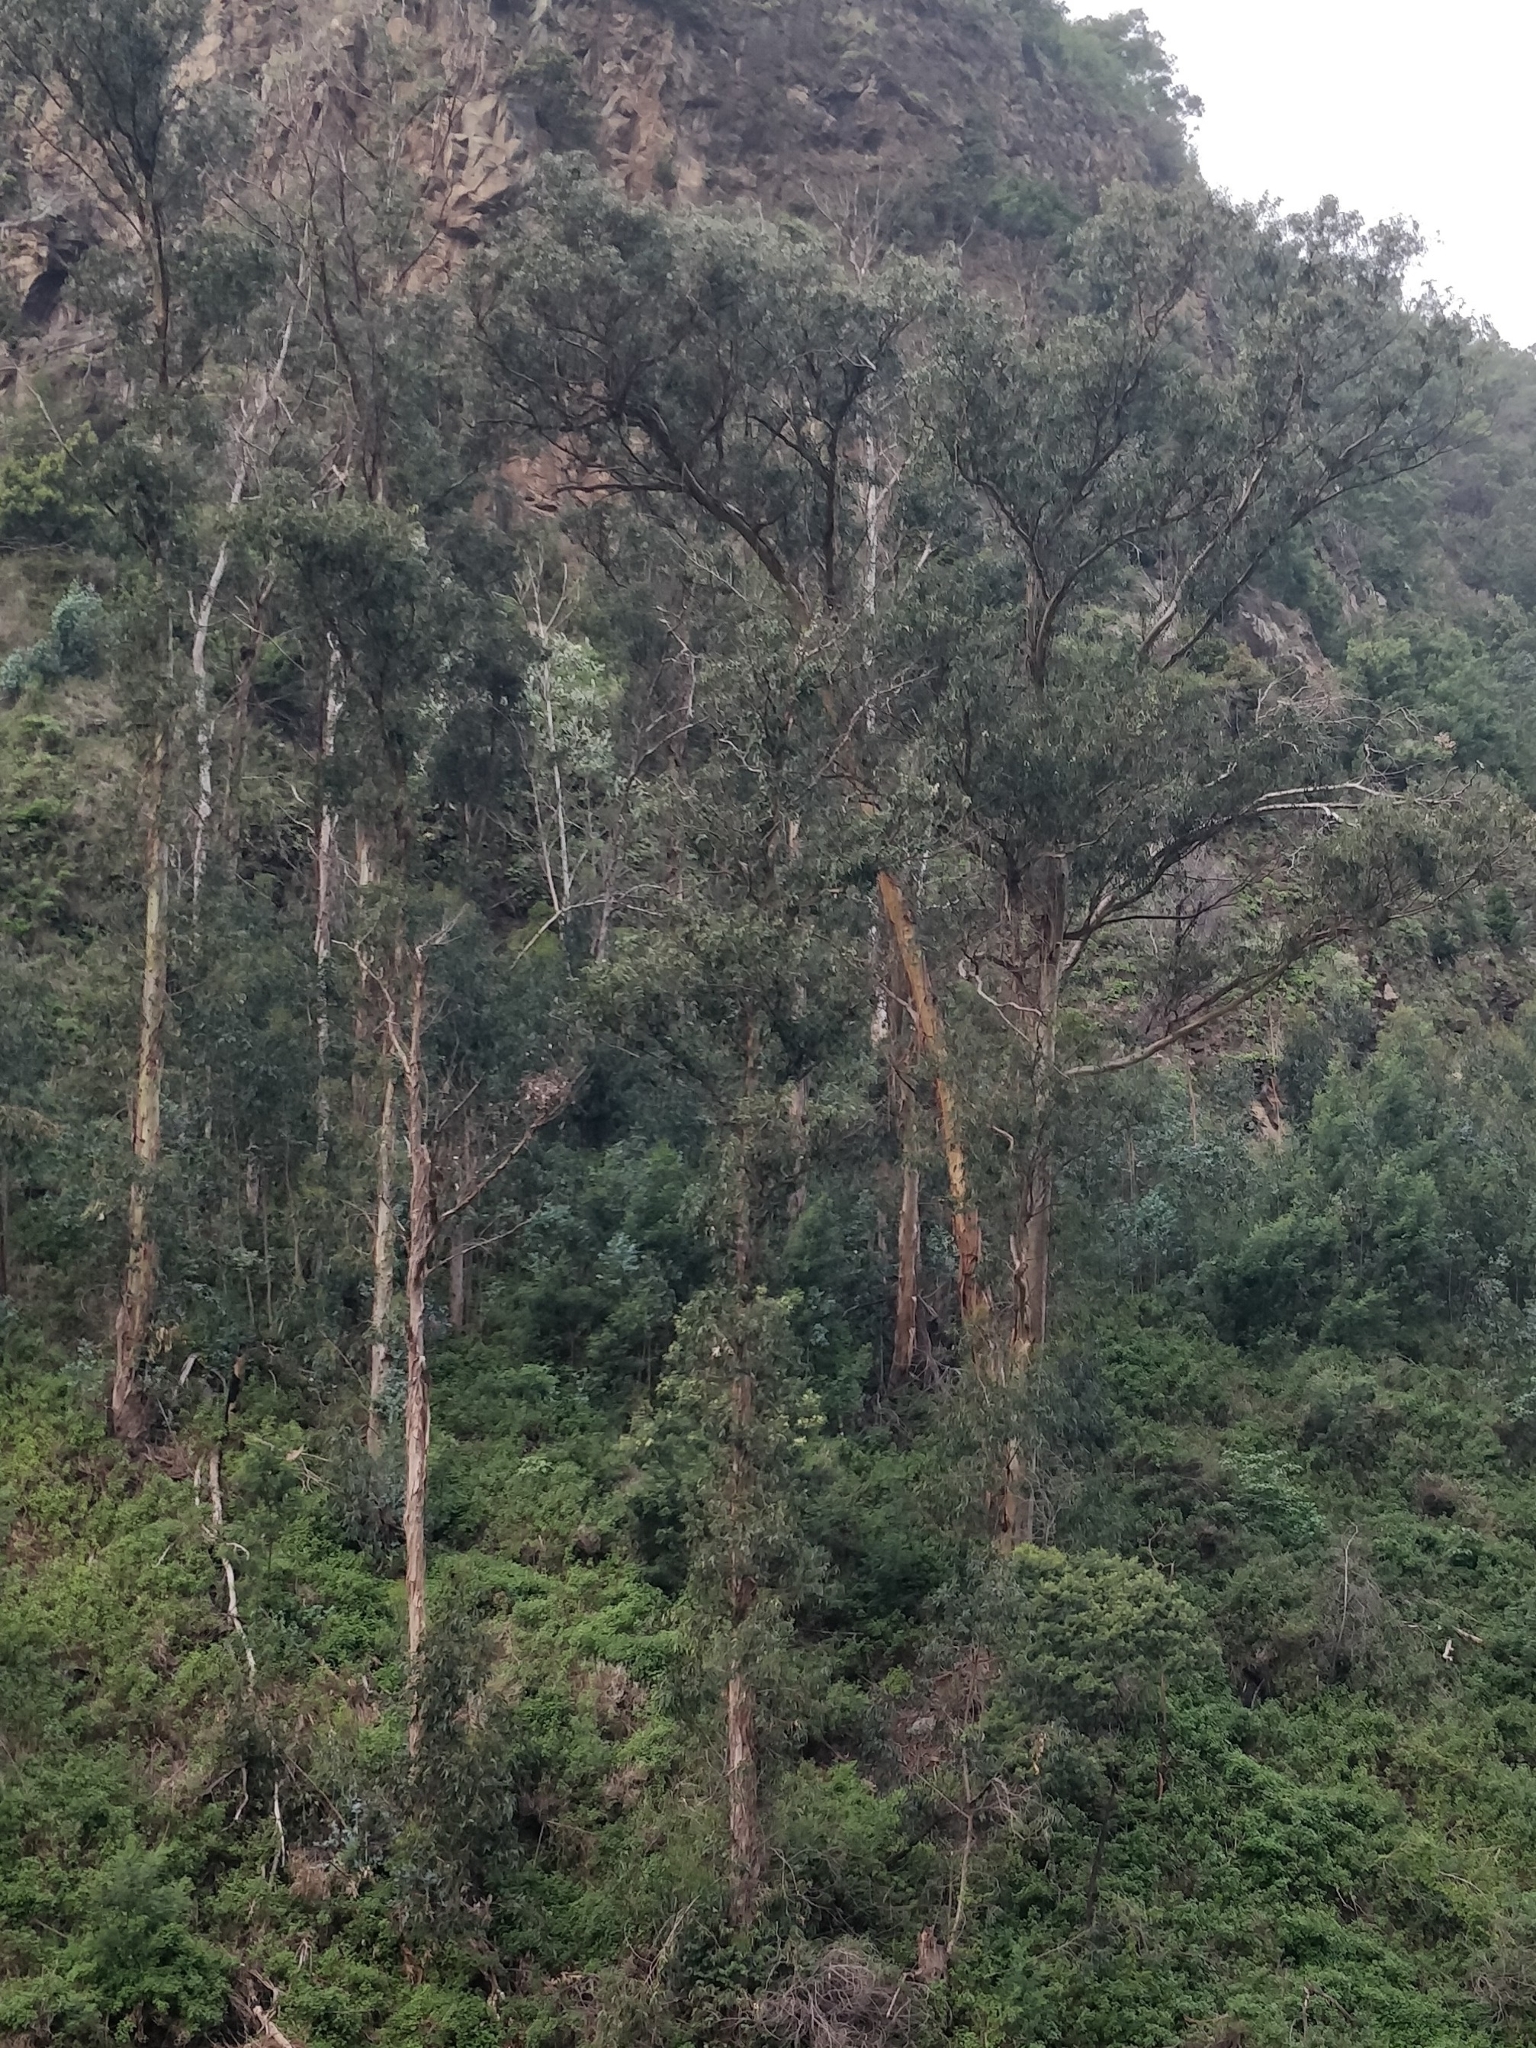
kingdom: Plantae
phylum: Tracheophyta
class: Magnoliopsida
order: Myrtales
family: Myrtaceae
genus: Eucalyptus
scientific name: Eucalyptus globulus
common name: Southern blue-gum
